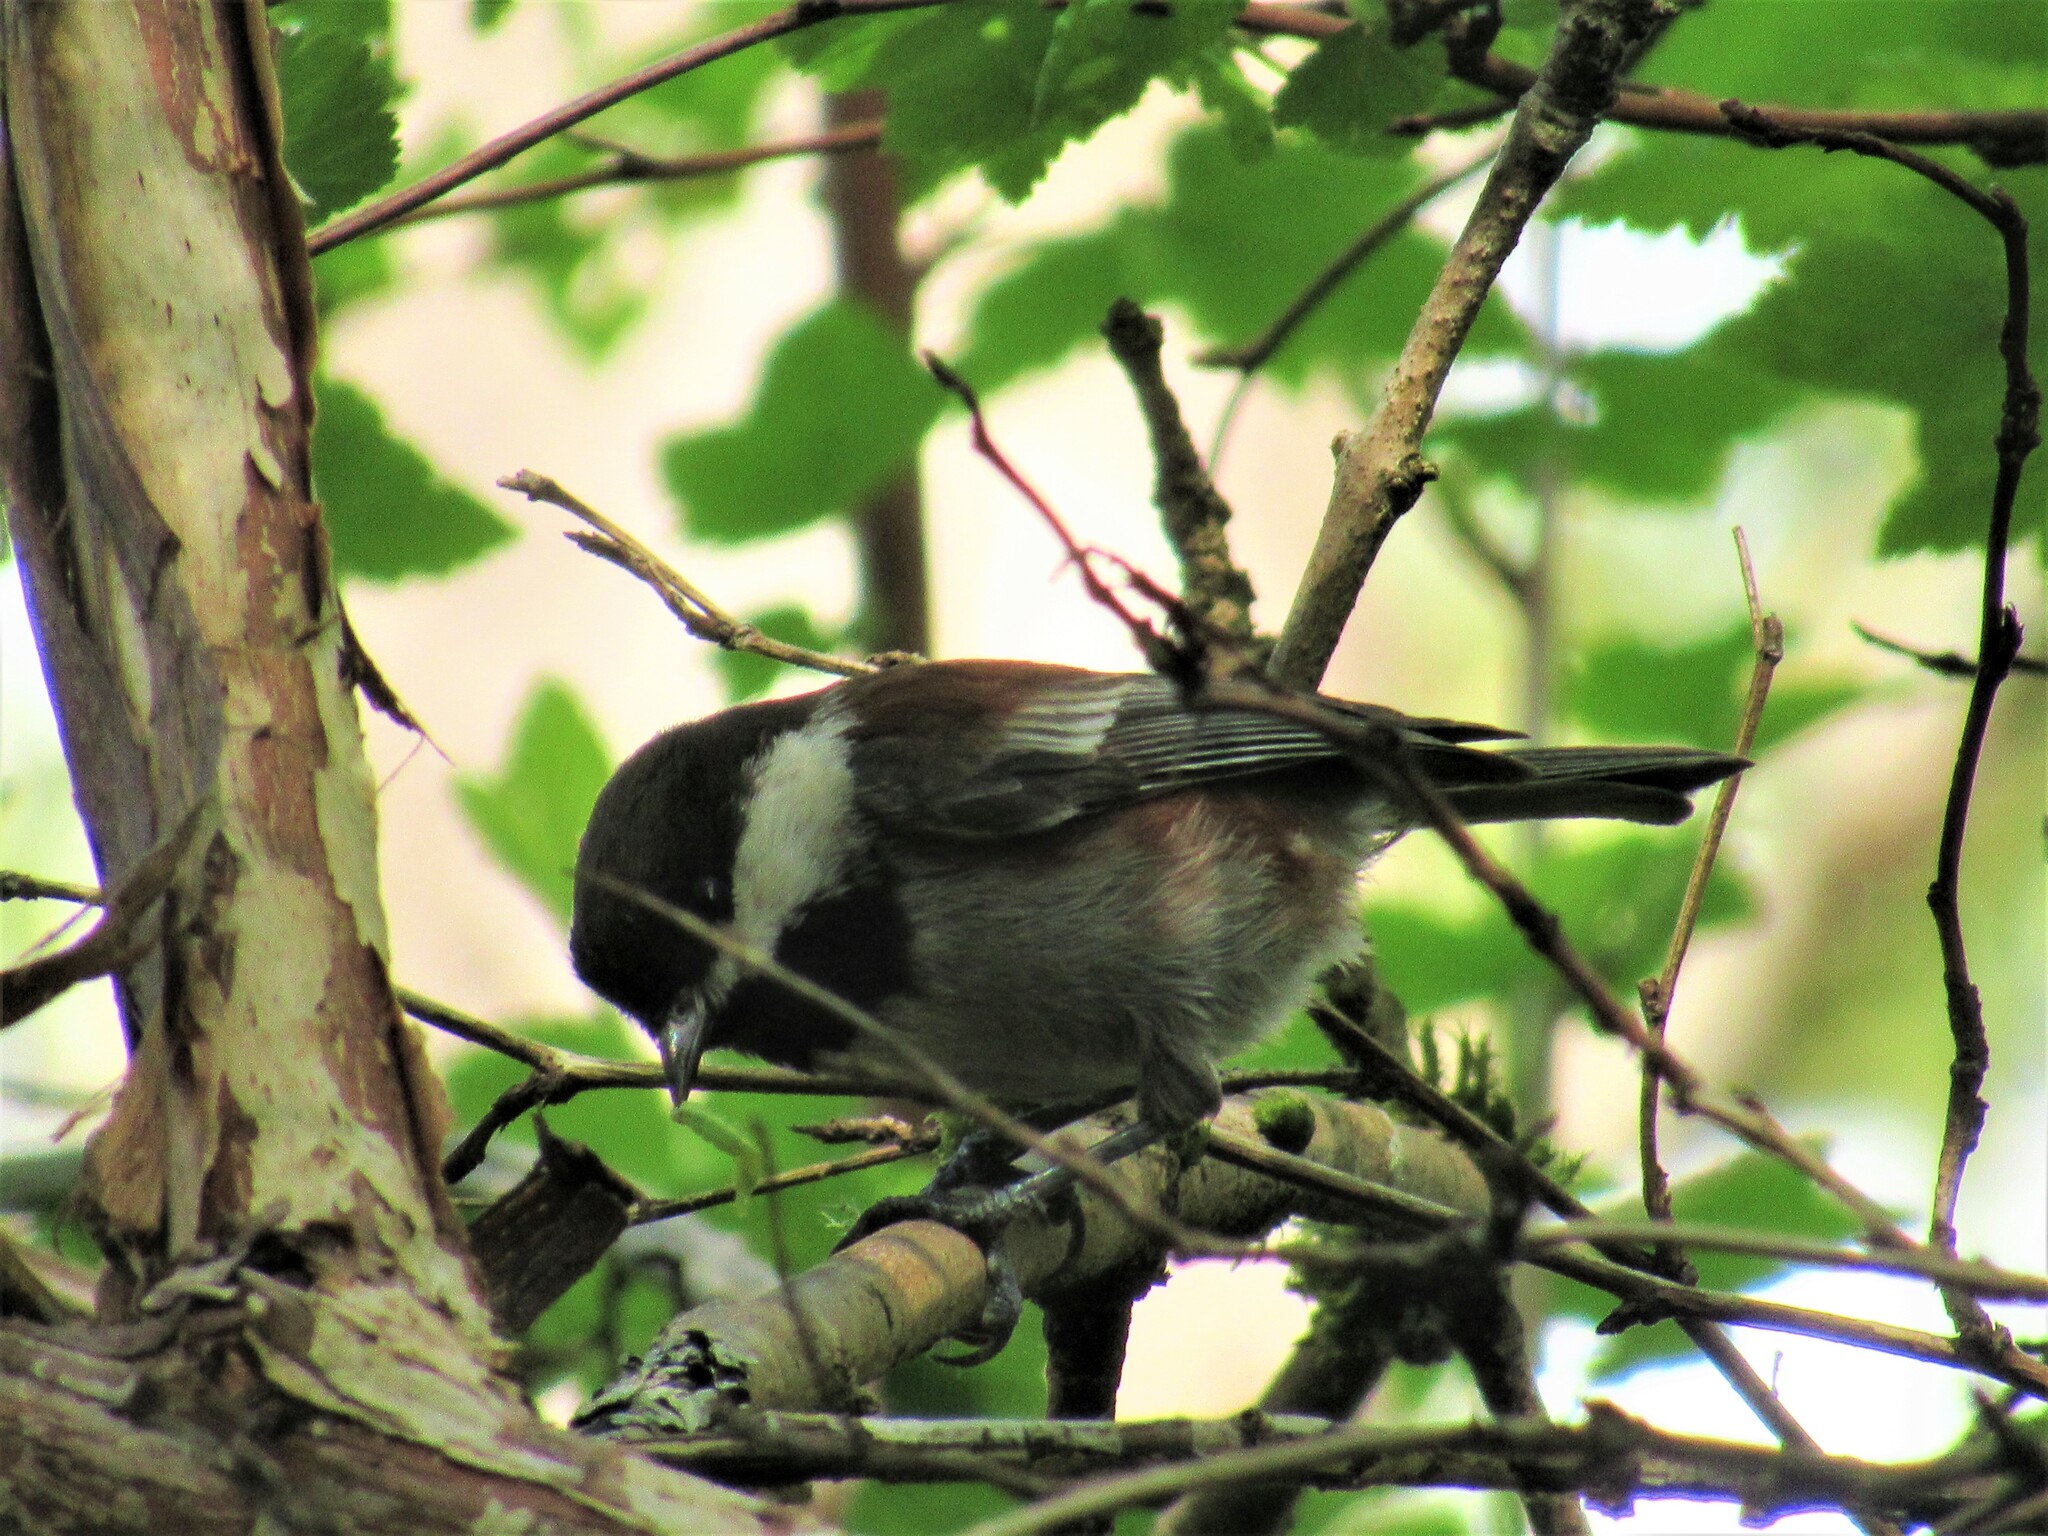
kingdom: Animalia
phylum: Chordata
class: Aves
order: Passeriformes
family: Paridae
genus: Poecile
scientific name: Poecile rufescens
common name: Chestnut-backed chickadee
